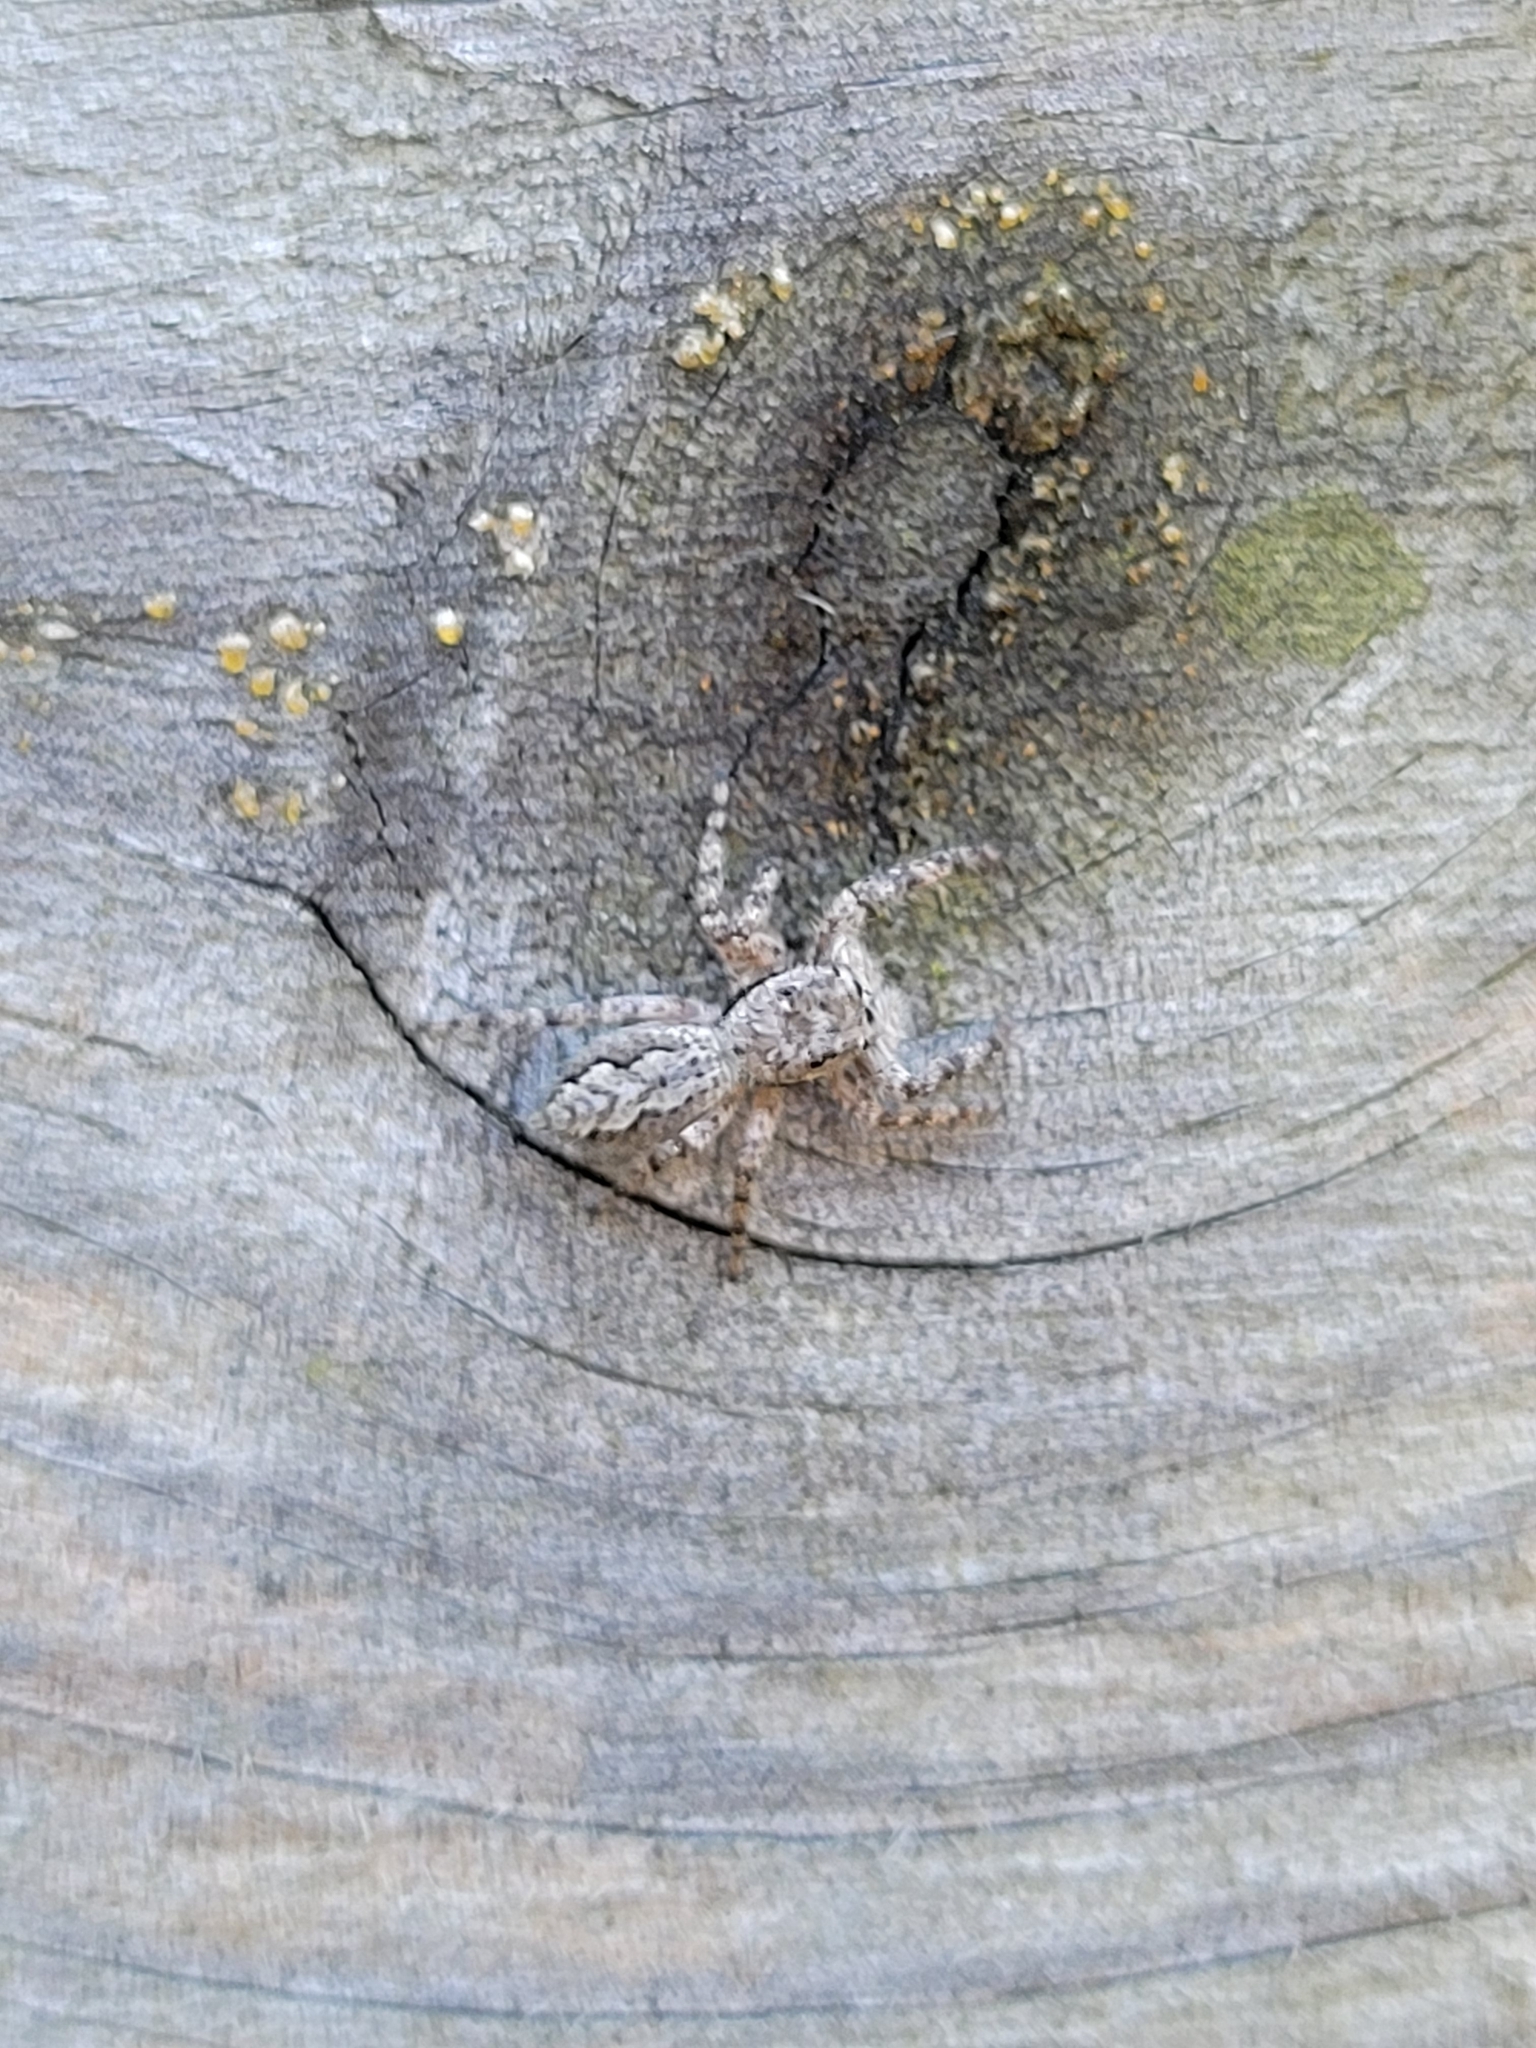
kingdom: Animalia
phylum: Arthropoda
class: Arachnida
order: Araneae
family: Salticidae
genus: Platycryptus
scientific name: Platycryptus undatus
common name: Tan jumping spider
